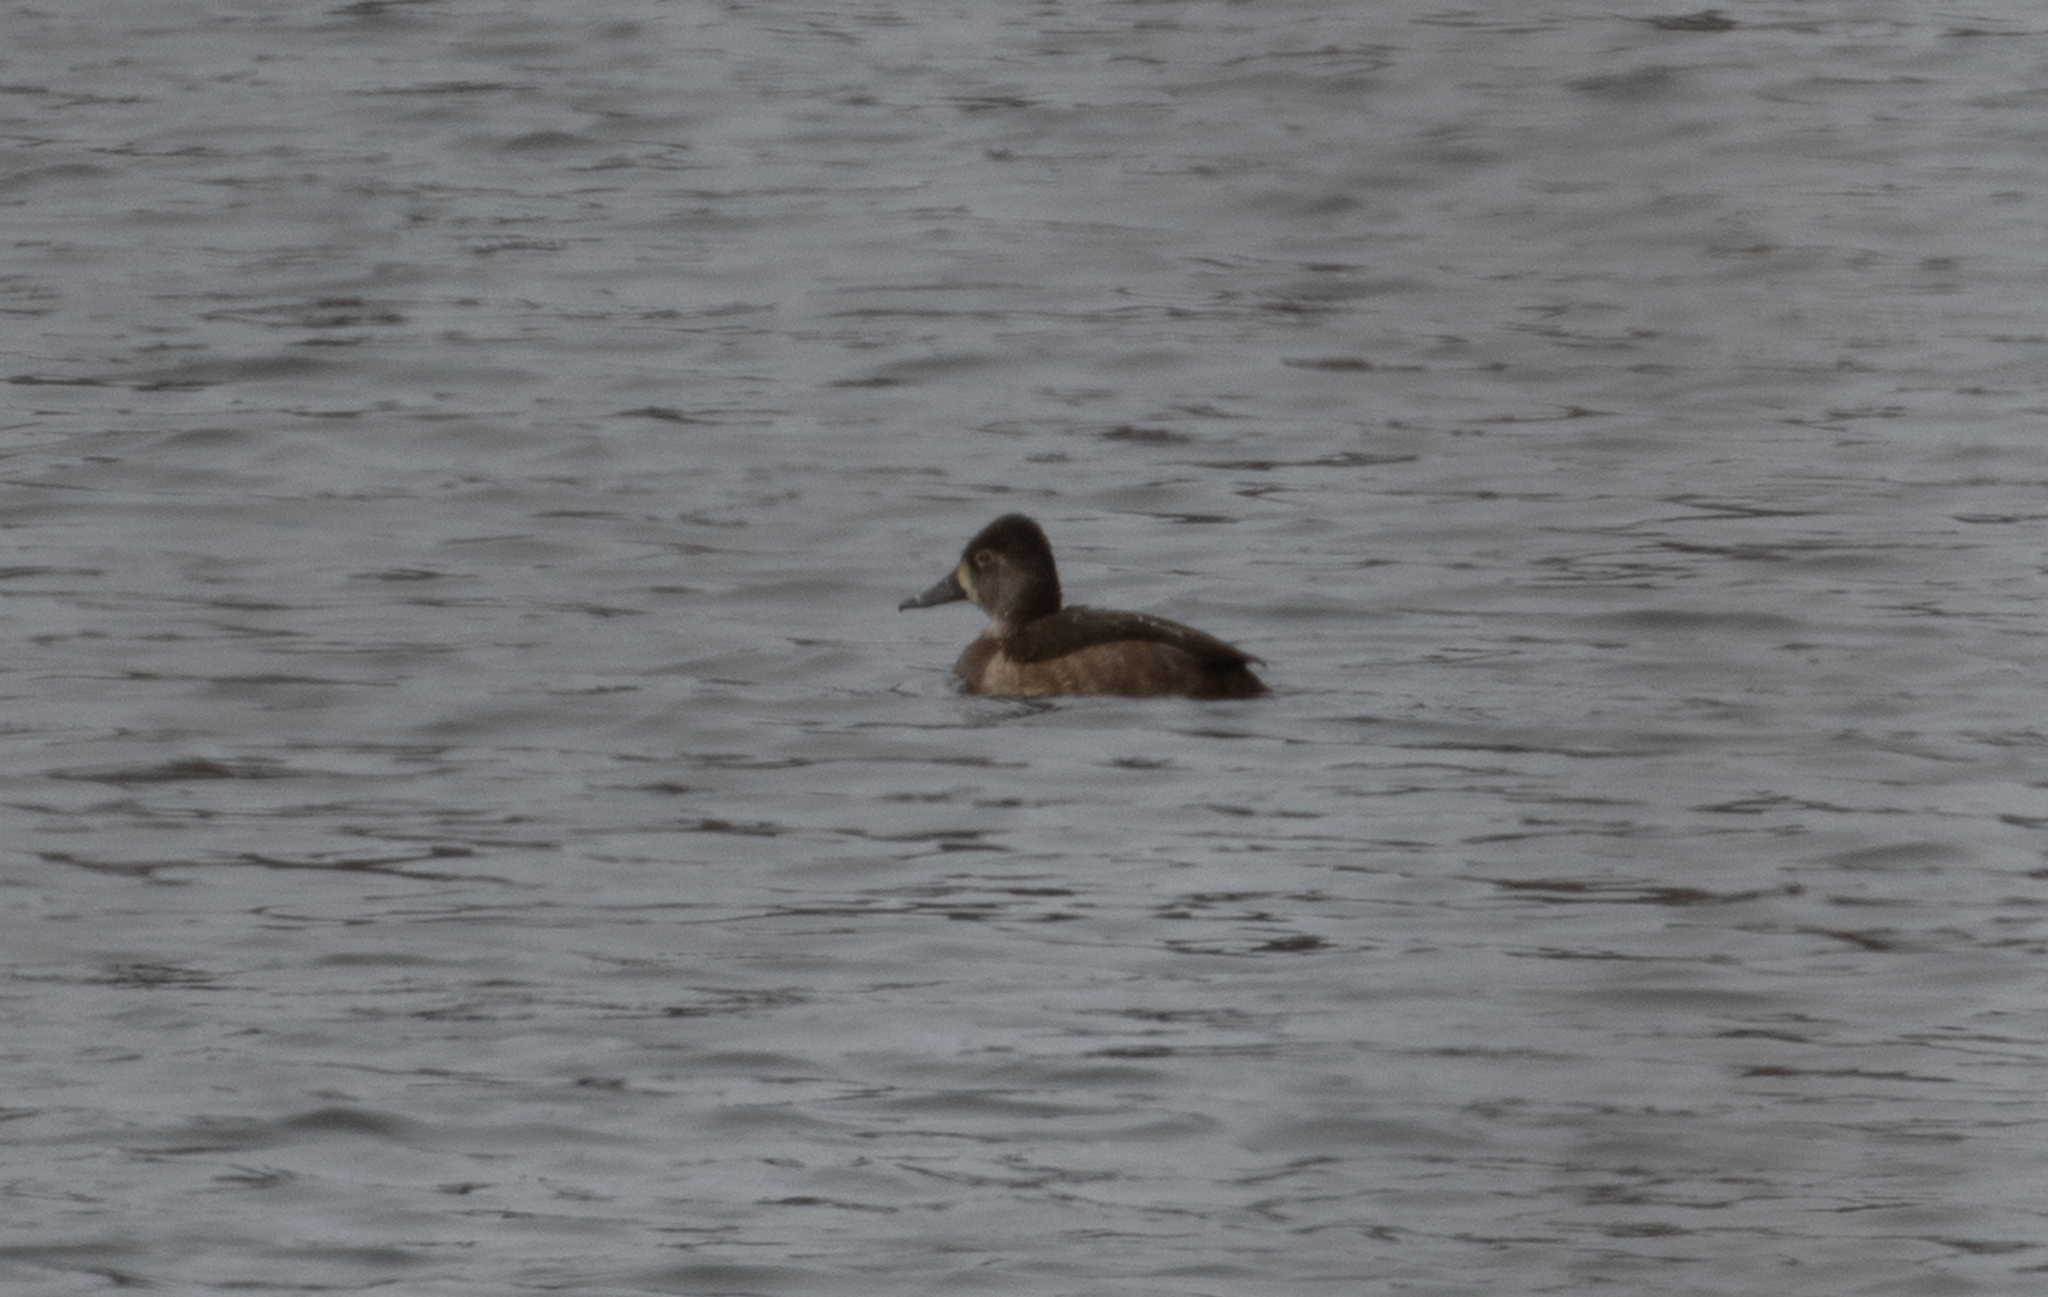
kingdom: Animalia
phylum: Chordata
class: Aves
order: Anseriformes
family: Anatidae
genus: Aythya
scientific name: Aythya collaris
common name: Ring-necked duck
